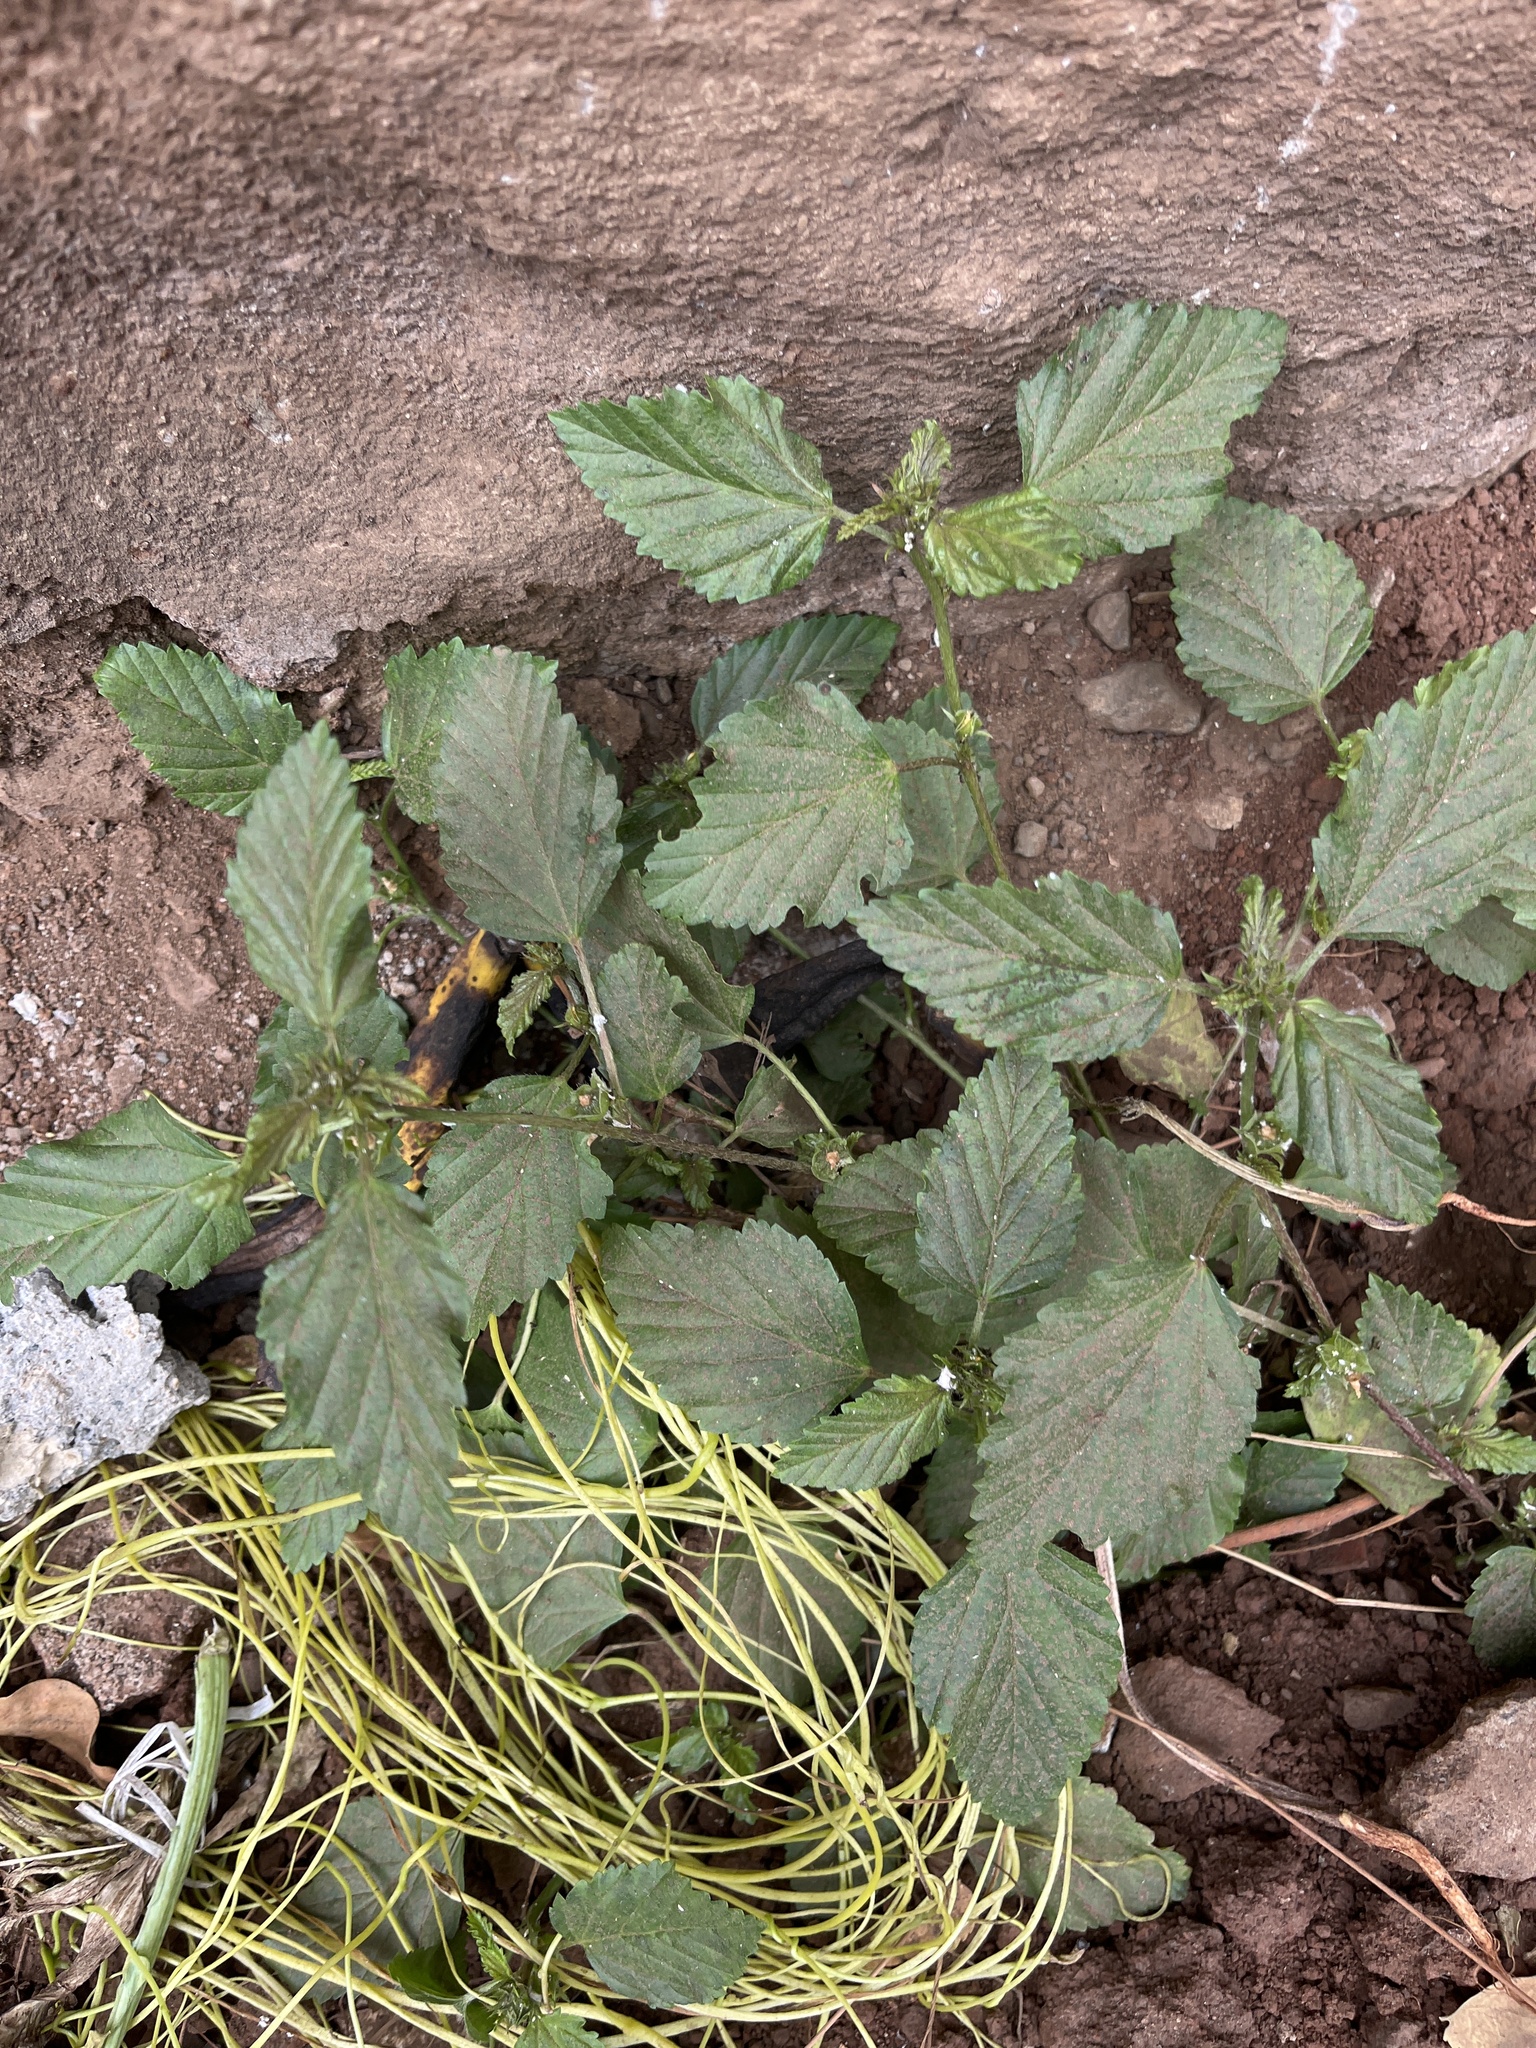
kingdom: Plantae
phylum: Tracheophyta
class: Magnoliopsida
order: Malvales
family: Malvaceae
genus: Malvastrum
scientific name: Malvastrum coromandelianum
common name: Threelobe false mallow
